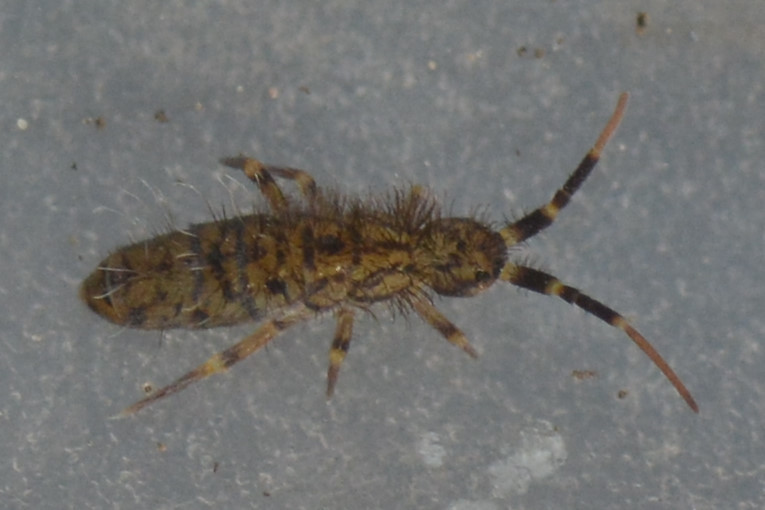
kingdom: Animalia
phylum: Arthropoda
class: Collembola
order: Entomobryomorpha
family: Orchesellidae
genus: Orchesella
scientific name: Orchesella villosa
